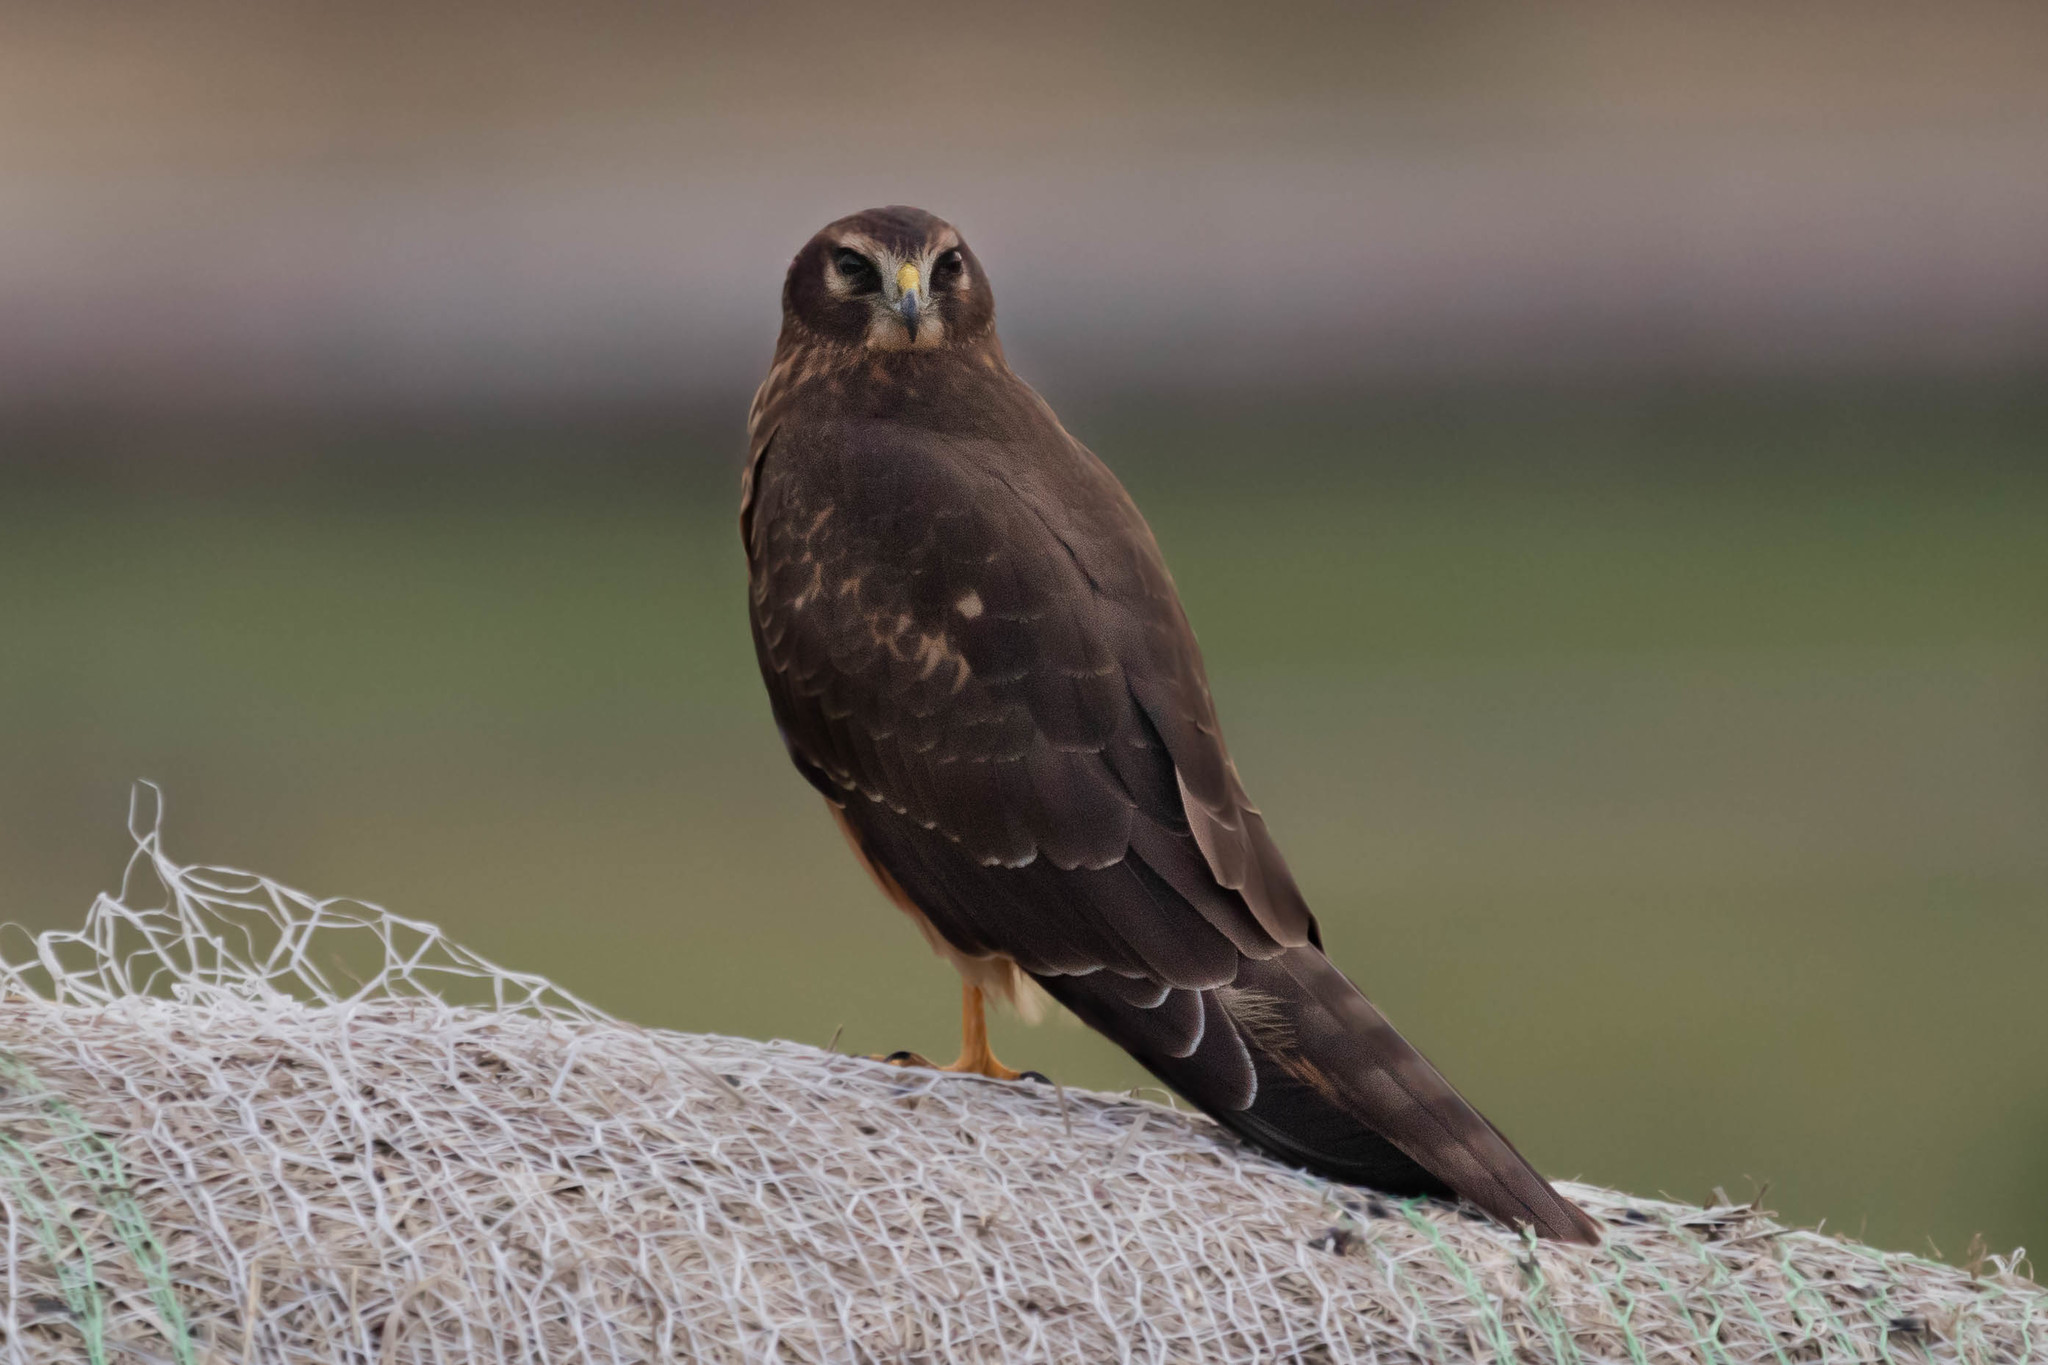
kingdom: Animalia
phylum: Chordata
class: Aves
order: Accipitriformes
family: Accipitridae
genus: Circus
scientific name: Circus cyaneus
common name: Hen harrier
